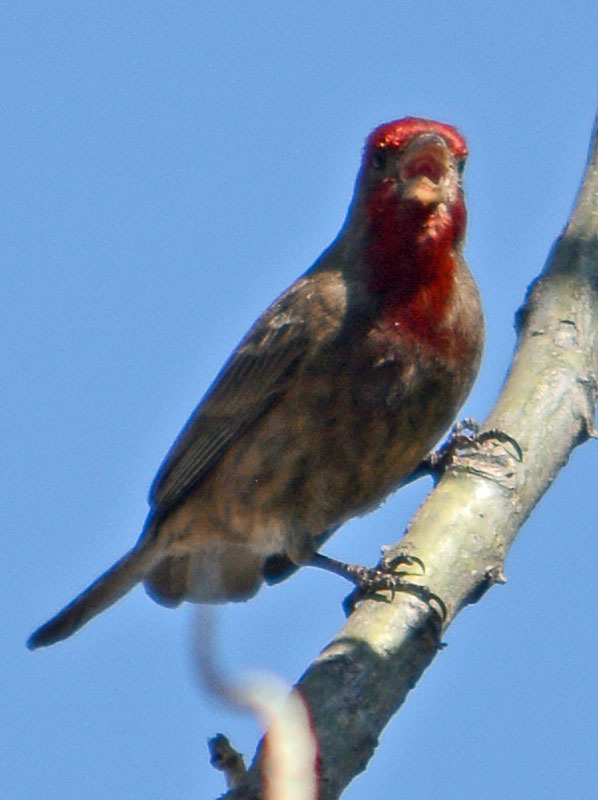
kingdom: Animalia
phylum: Chordata
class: Aves
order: Passeriformes
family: Fringillidae
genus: Haemorhous
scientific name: Haemorhous mexicanus
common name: House finch
